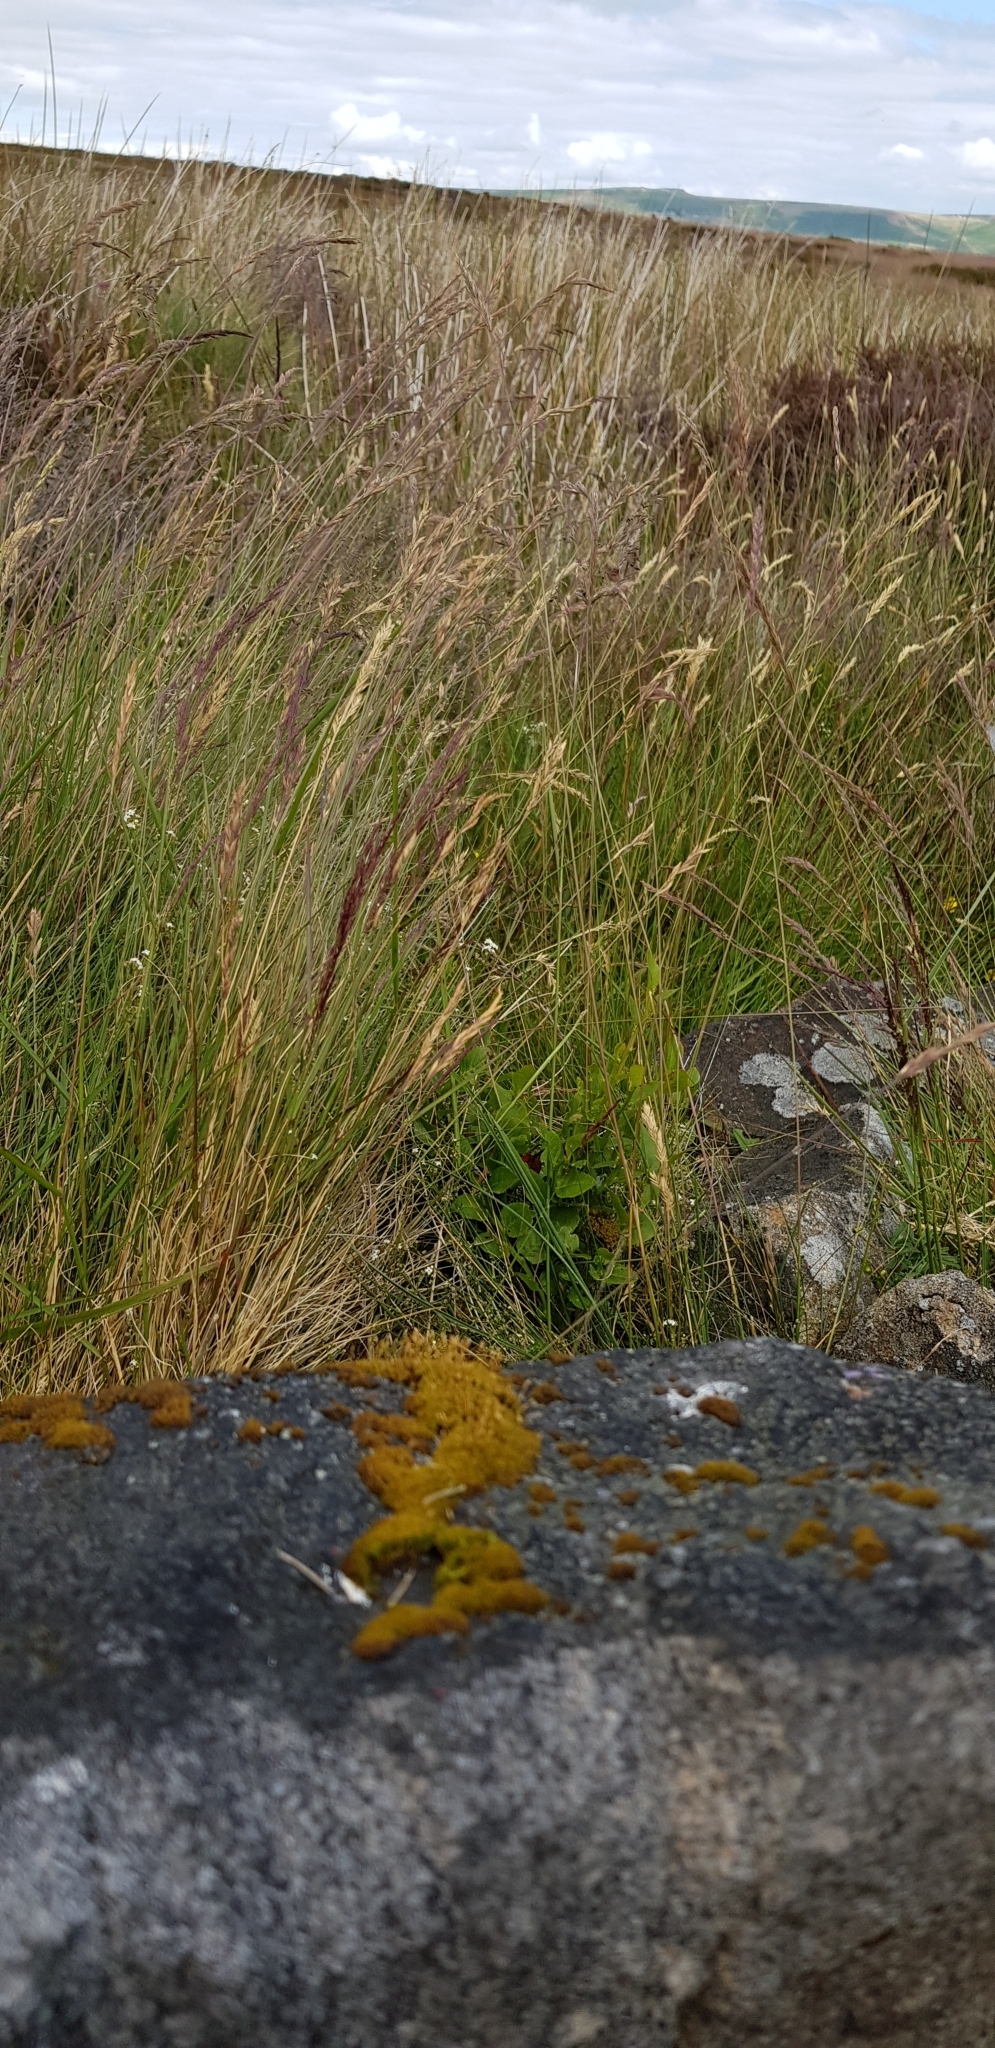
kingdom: Plantae
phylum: Bryophyta
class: Bryopsida
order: Dicranales
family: Rhabdoweisiaceae
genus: Dicranoweisia
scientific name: Dicranoweisia cirrata
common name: Common pincushion
